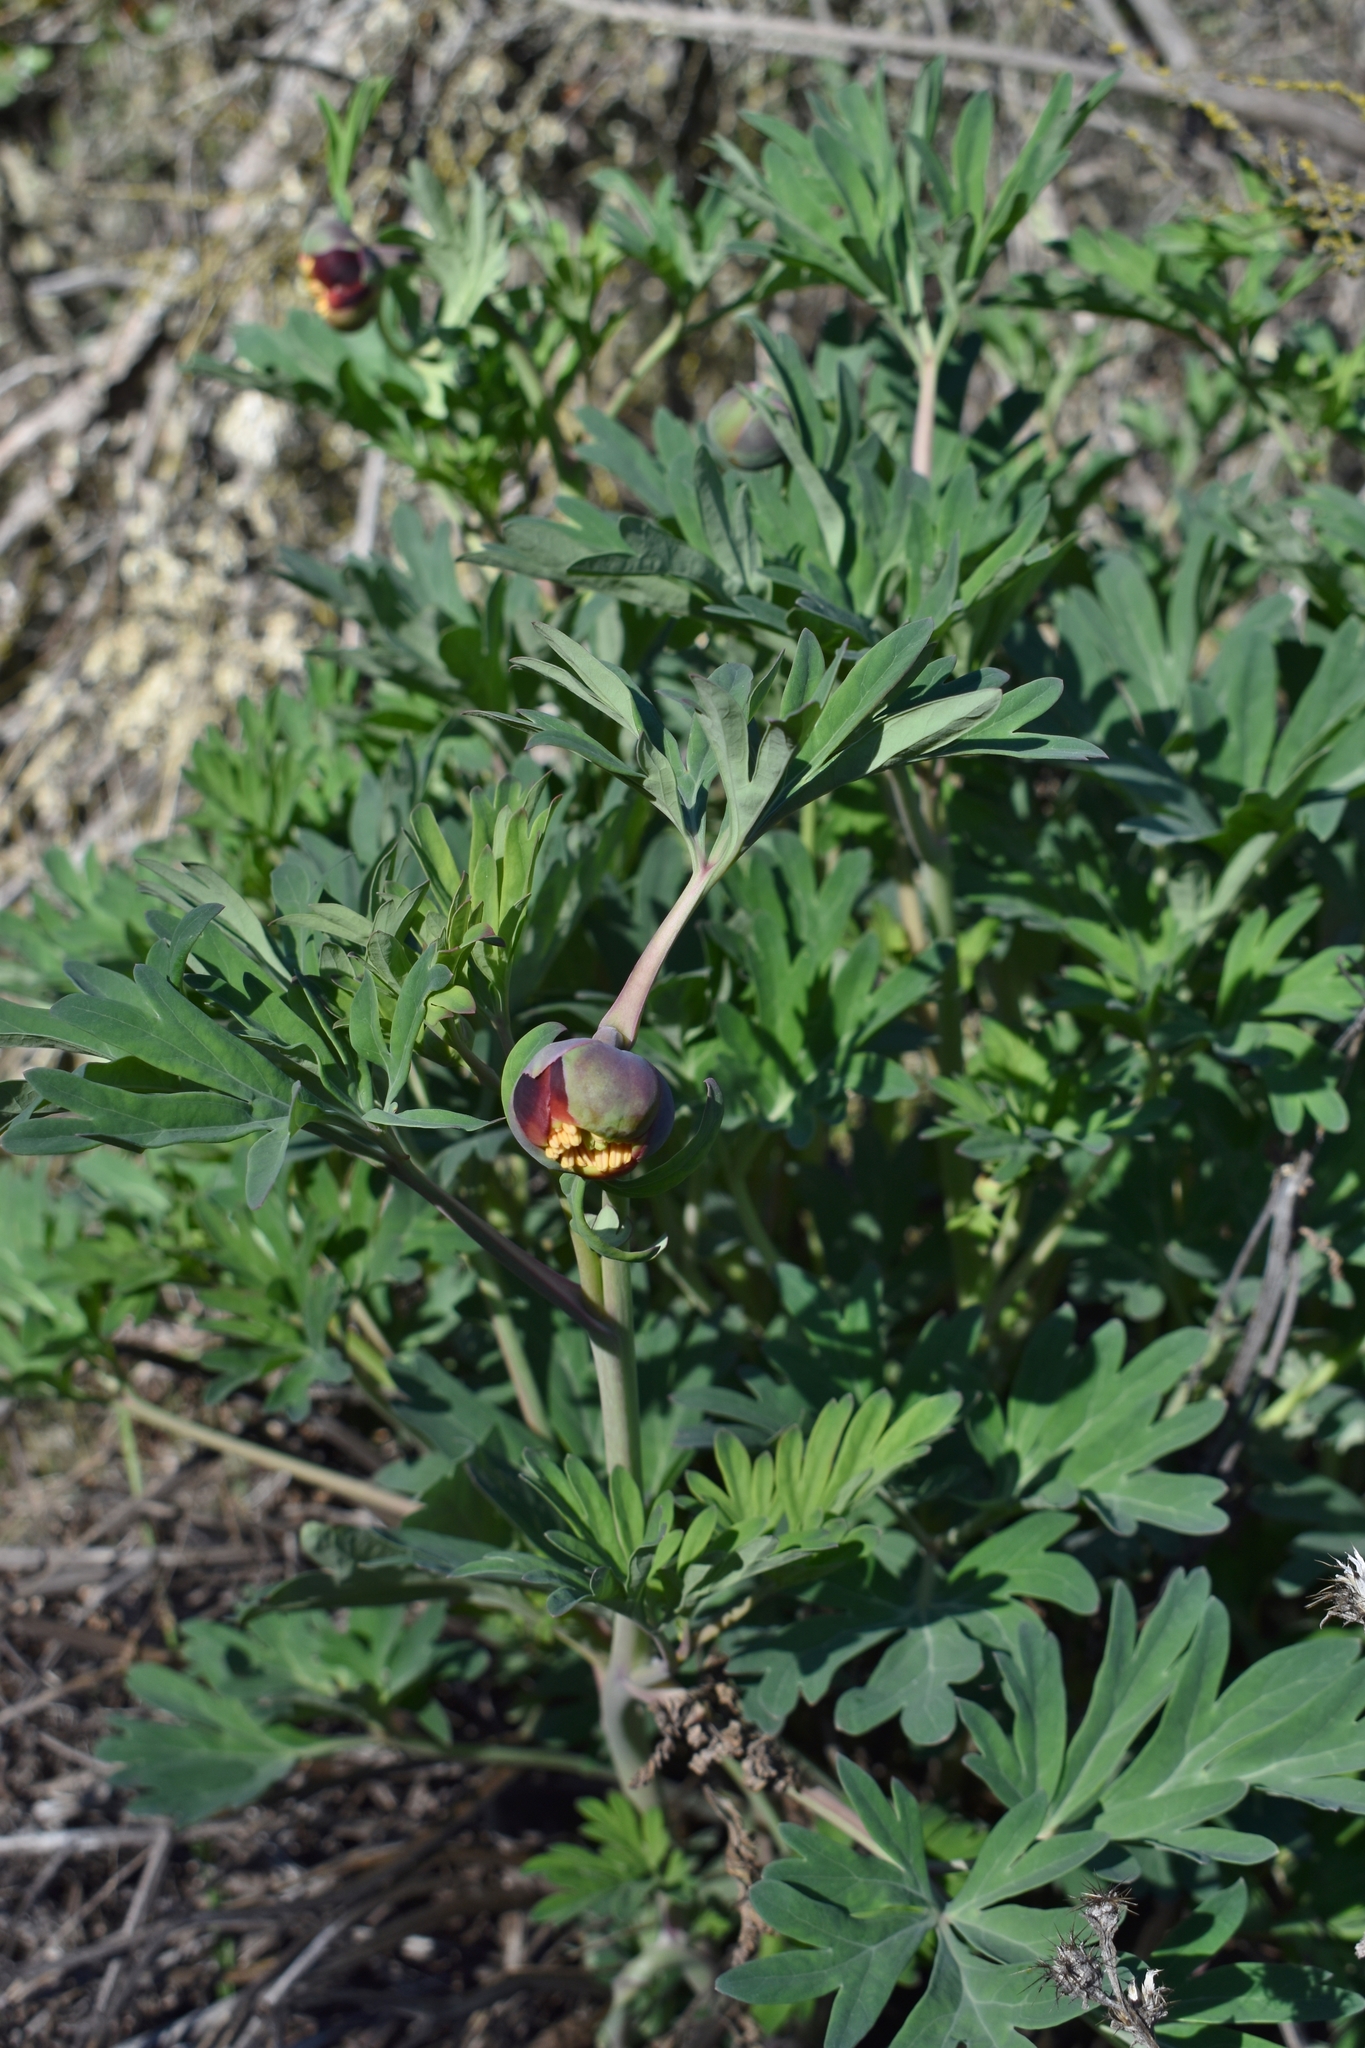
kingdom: Plantae
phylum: Tracheophyta
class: Magnoliopsida
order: Saxifragales
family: Paeoniaceae
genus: Paeonia
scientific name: Paeonia californica
